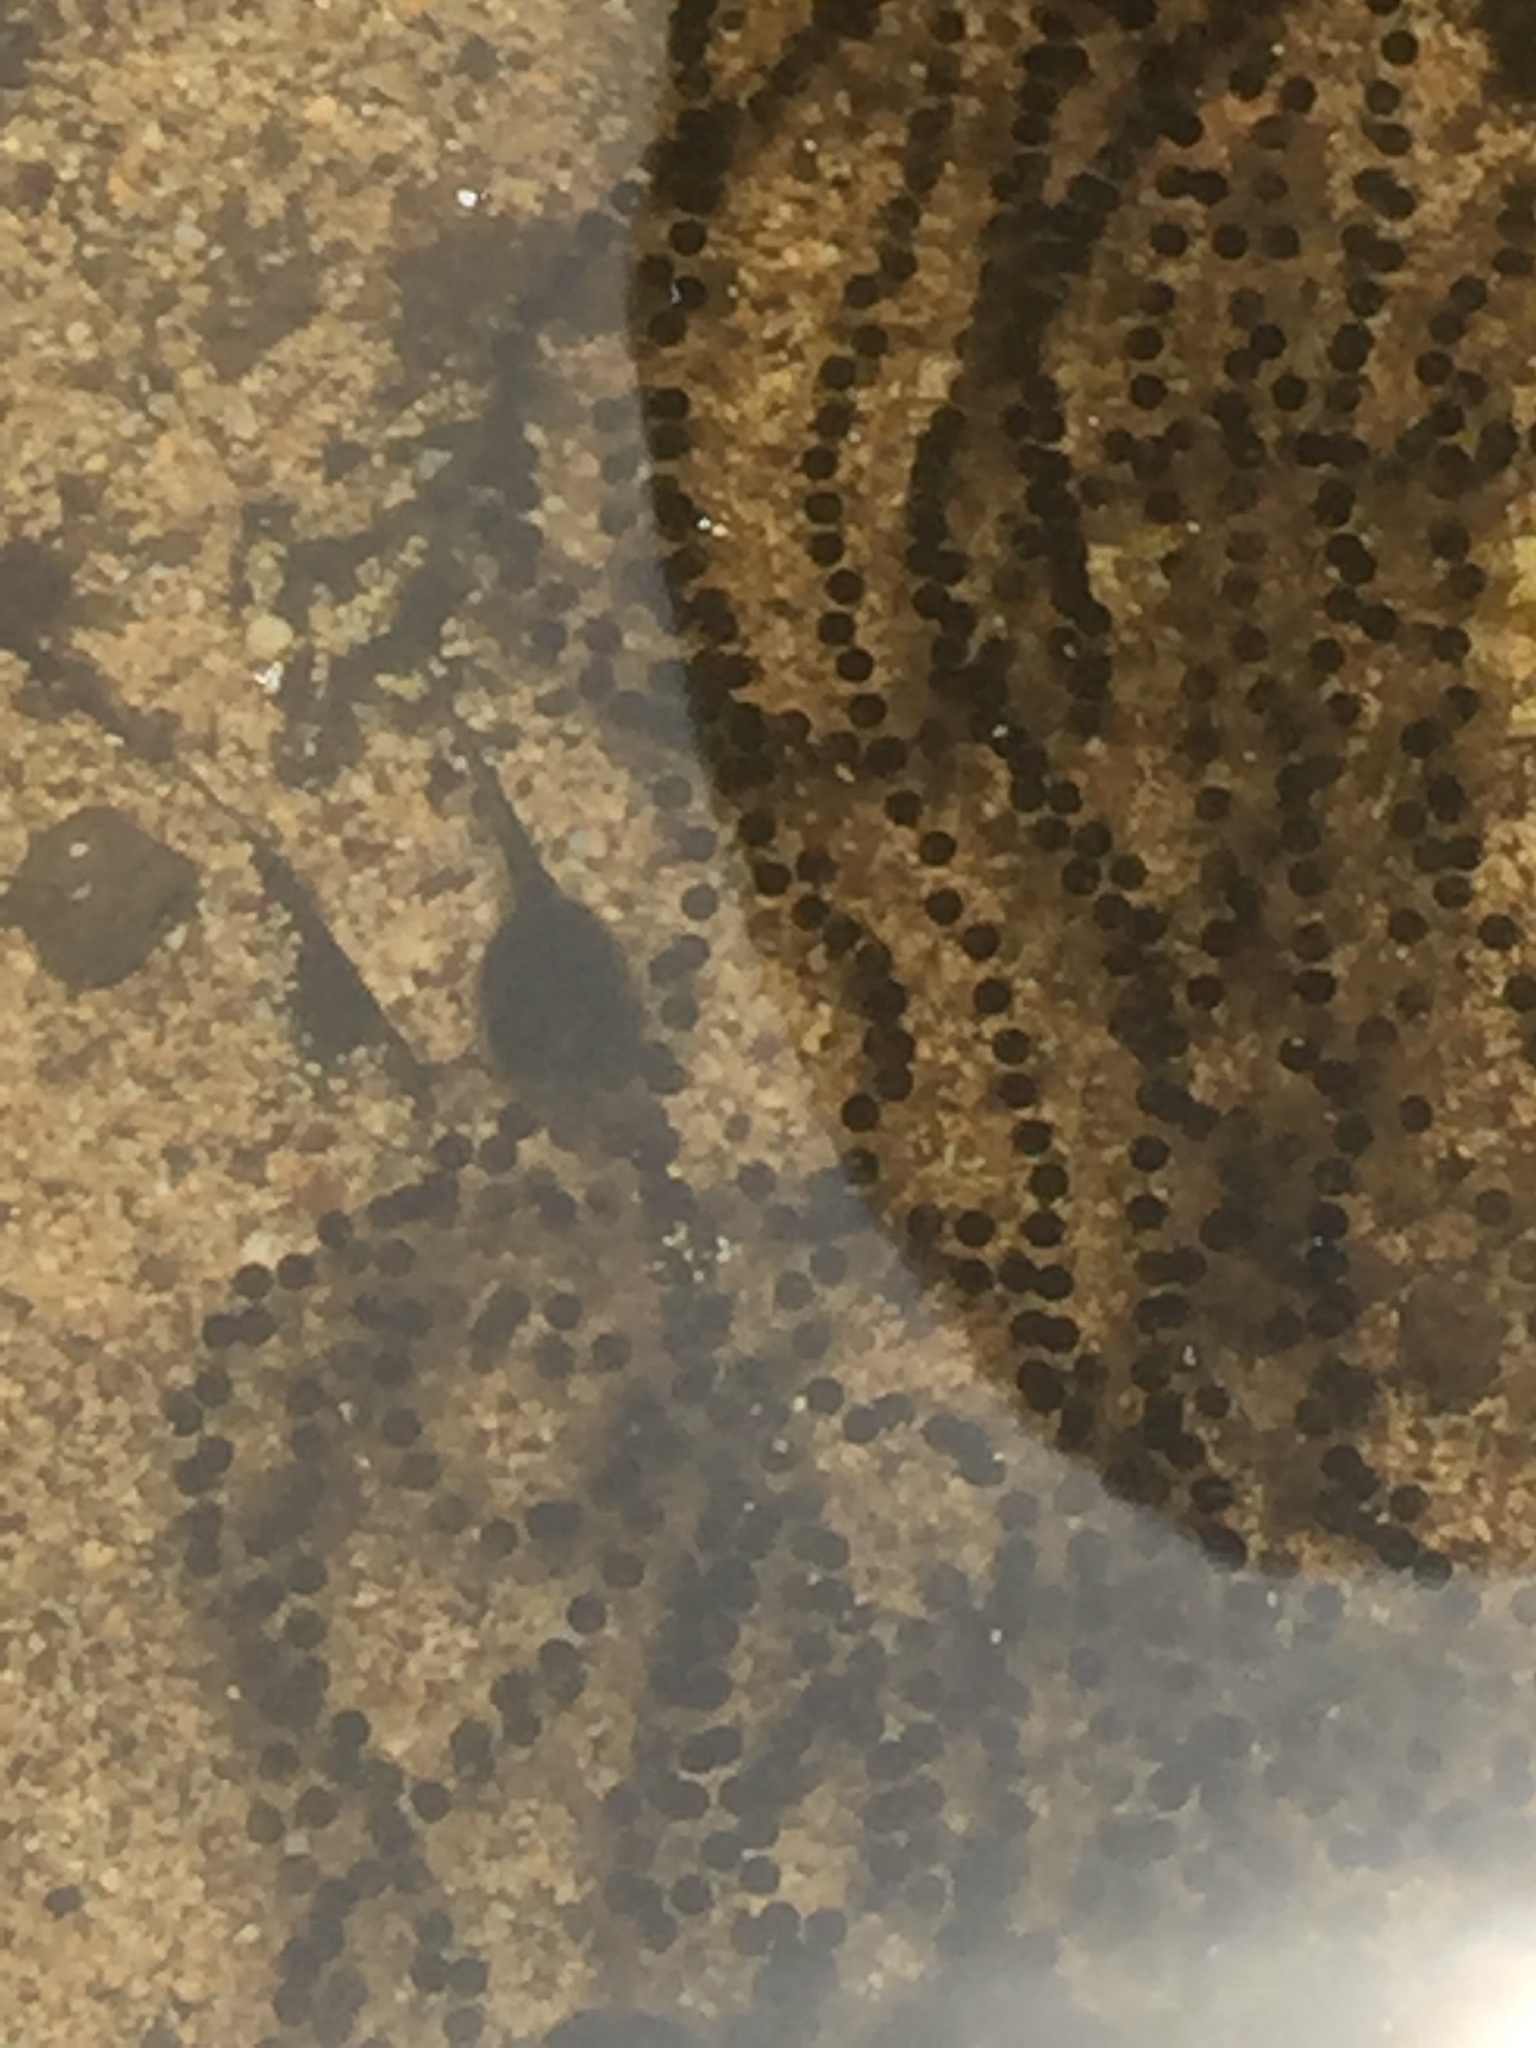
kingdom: Animalia
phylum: Chordata
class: Amphibia
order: Anura
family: Bufonidae
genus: Rhinella
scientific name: Rhinella marina
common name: Cane toad
